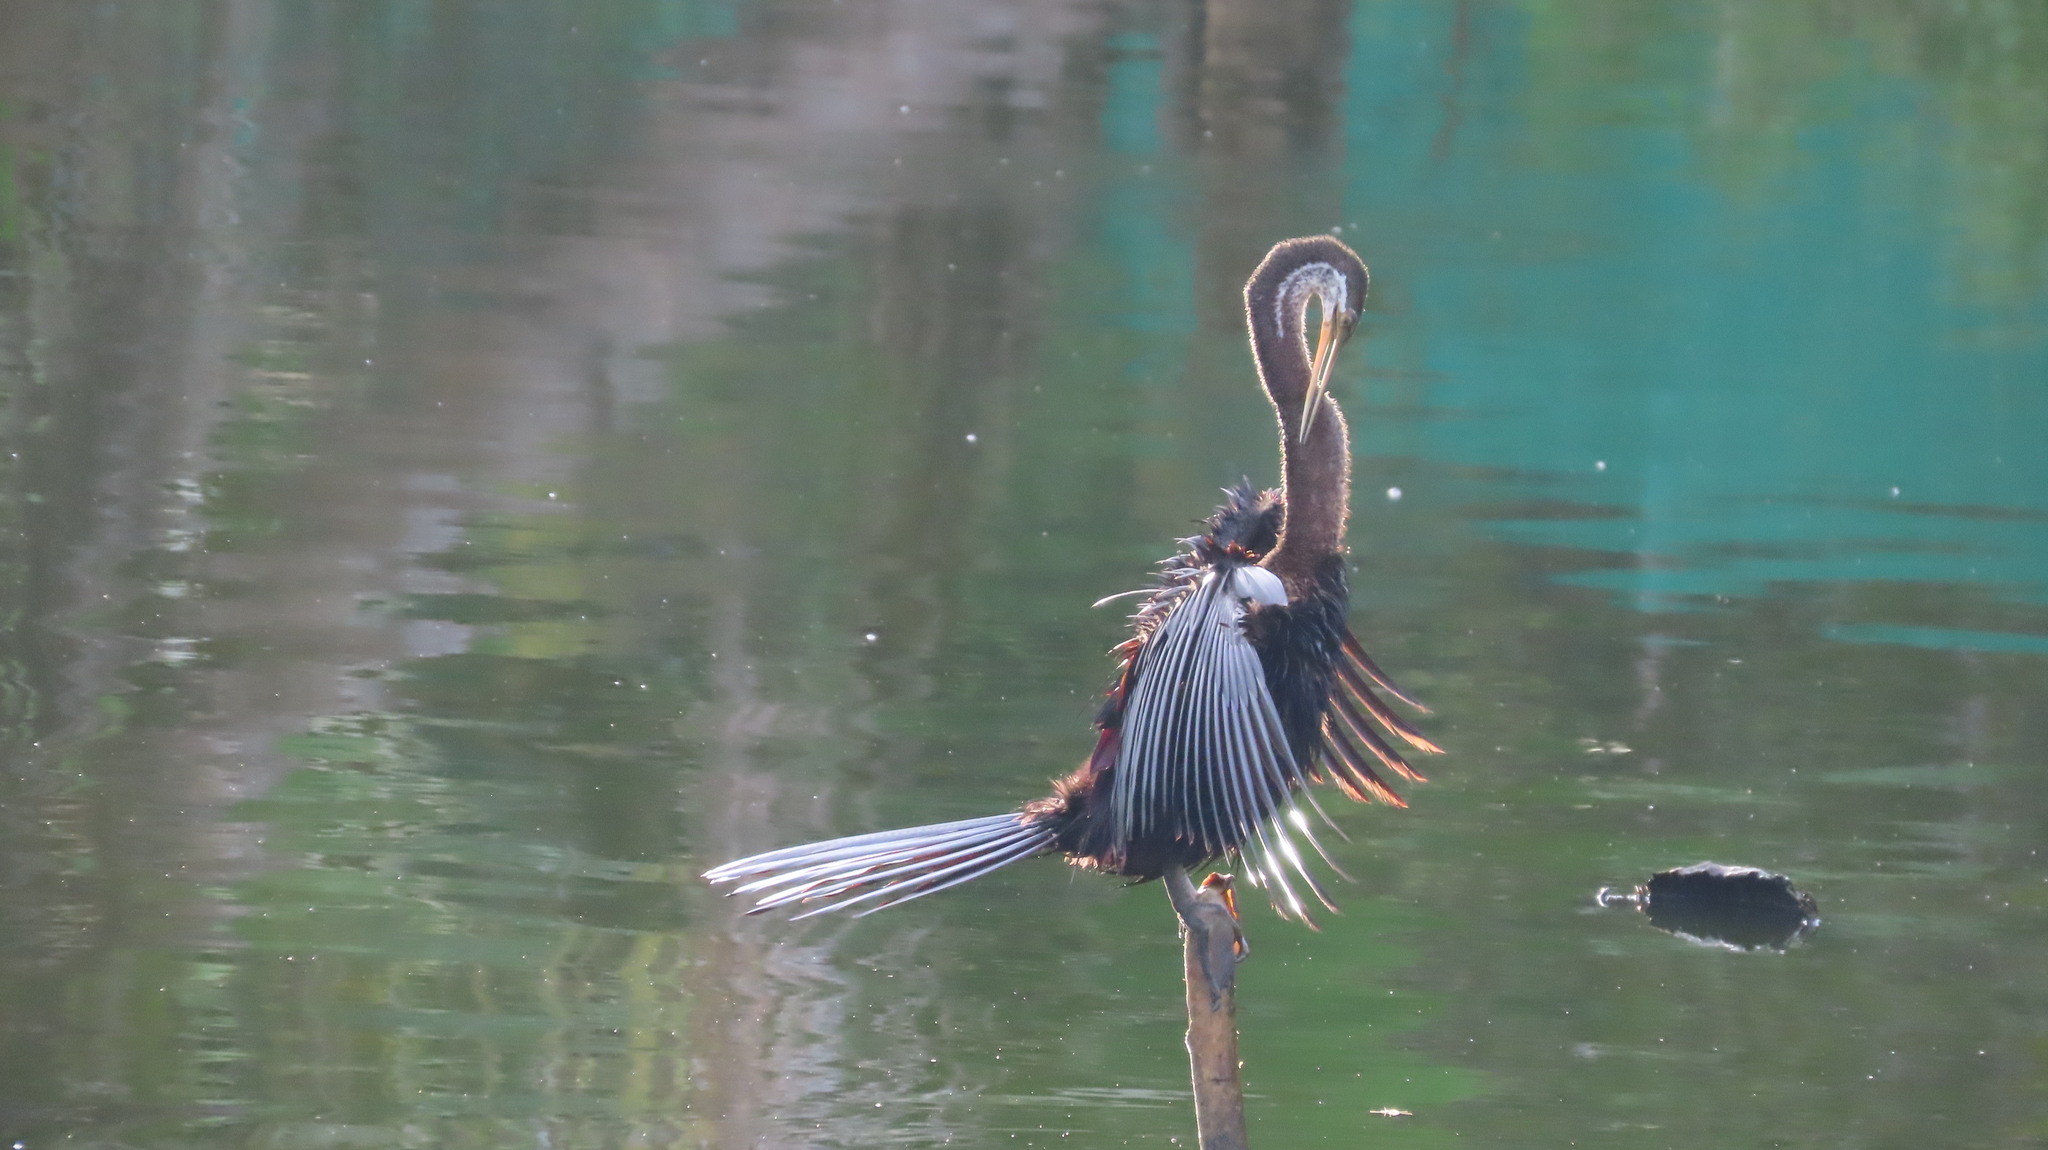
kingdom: Animalia
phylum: Chordata
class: Aves
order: Suliformes
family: Anhingidae
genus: Anhinga
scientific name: Anhinga melanogaster
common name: Oriental darter
